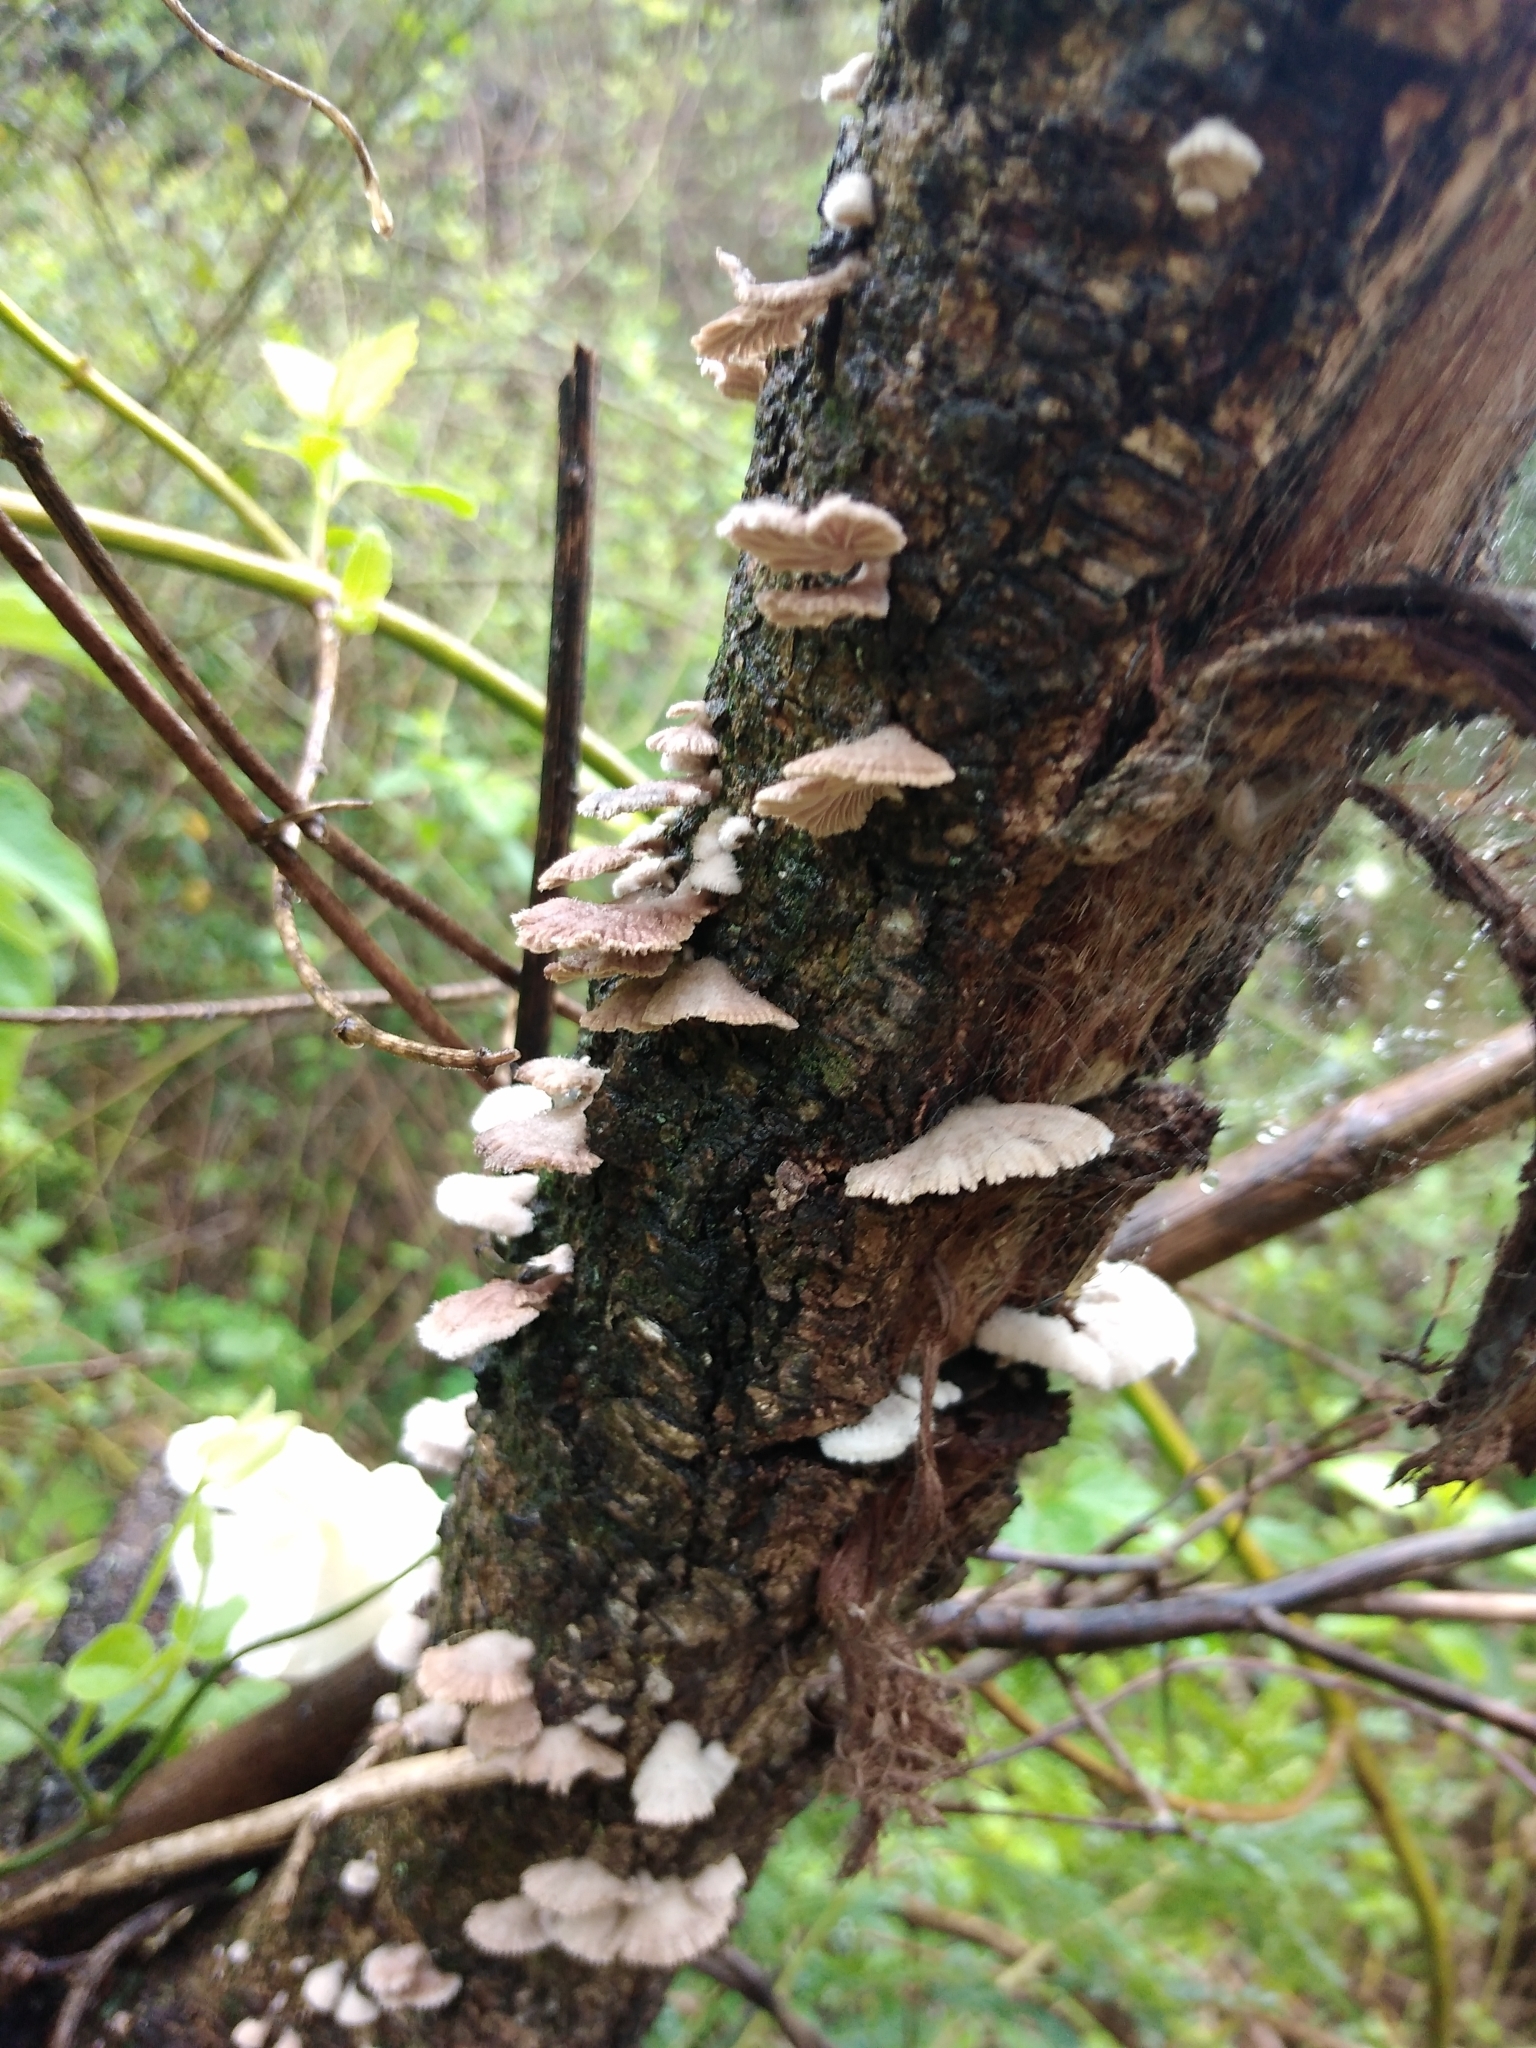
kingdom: Fungi
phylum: Basidiomycota
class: Agaricomycetes
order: Agaricales
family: Schizophyllaceae
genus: Schizophyllum
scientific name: Schizophyllum commune
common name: Common porecrust
